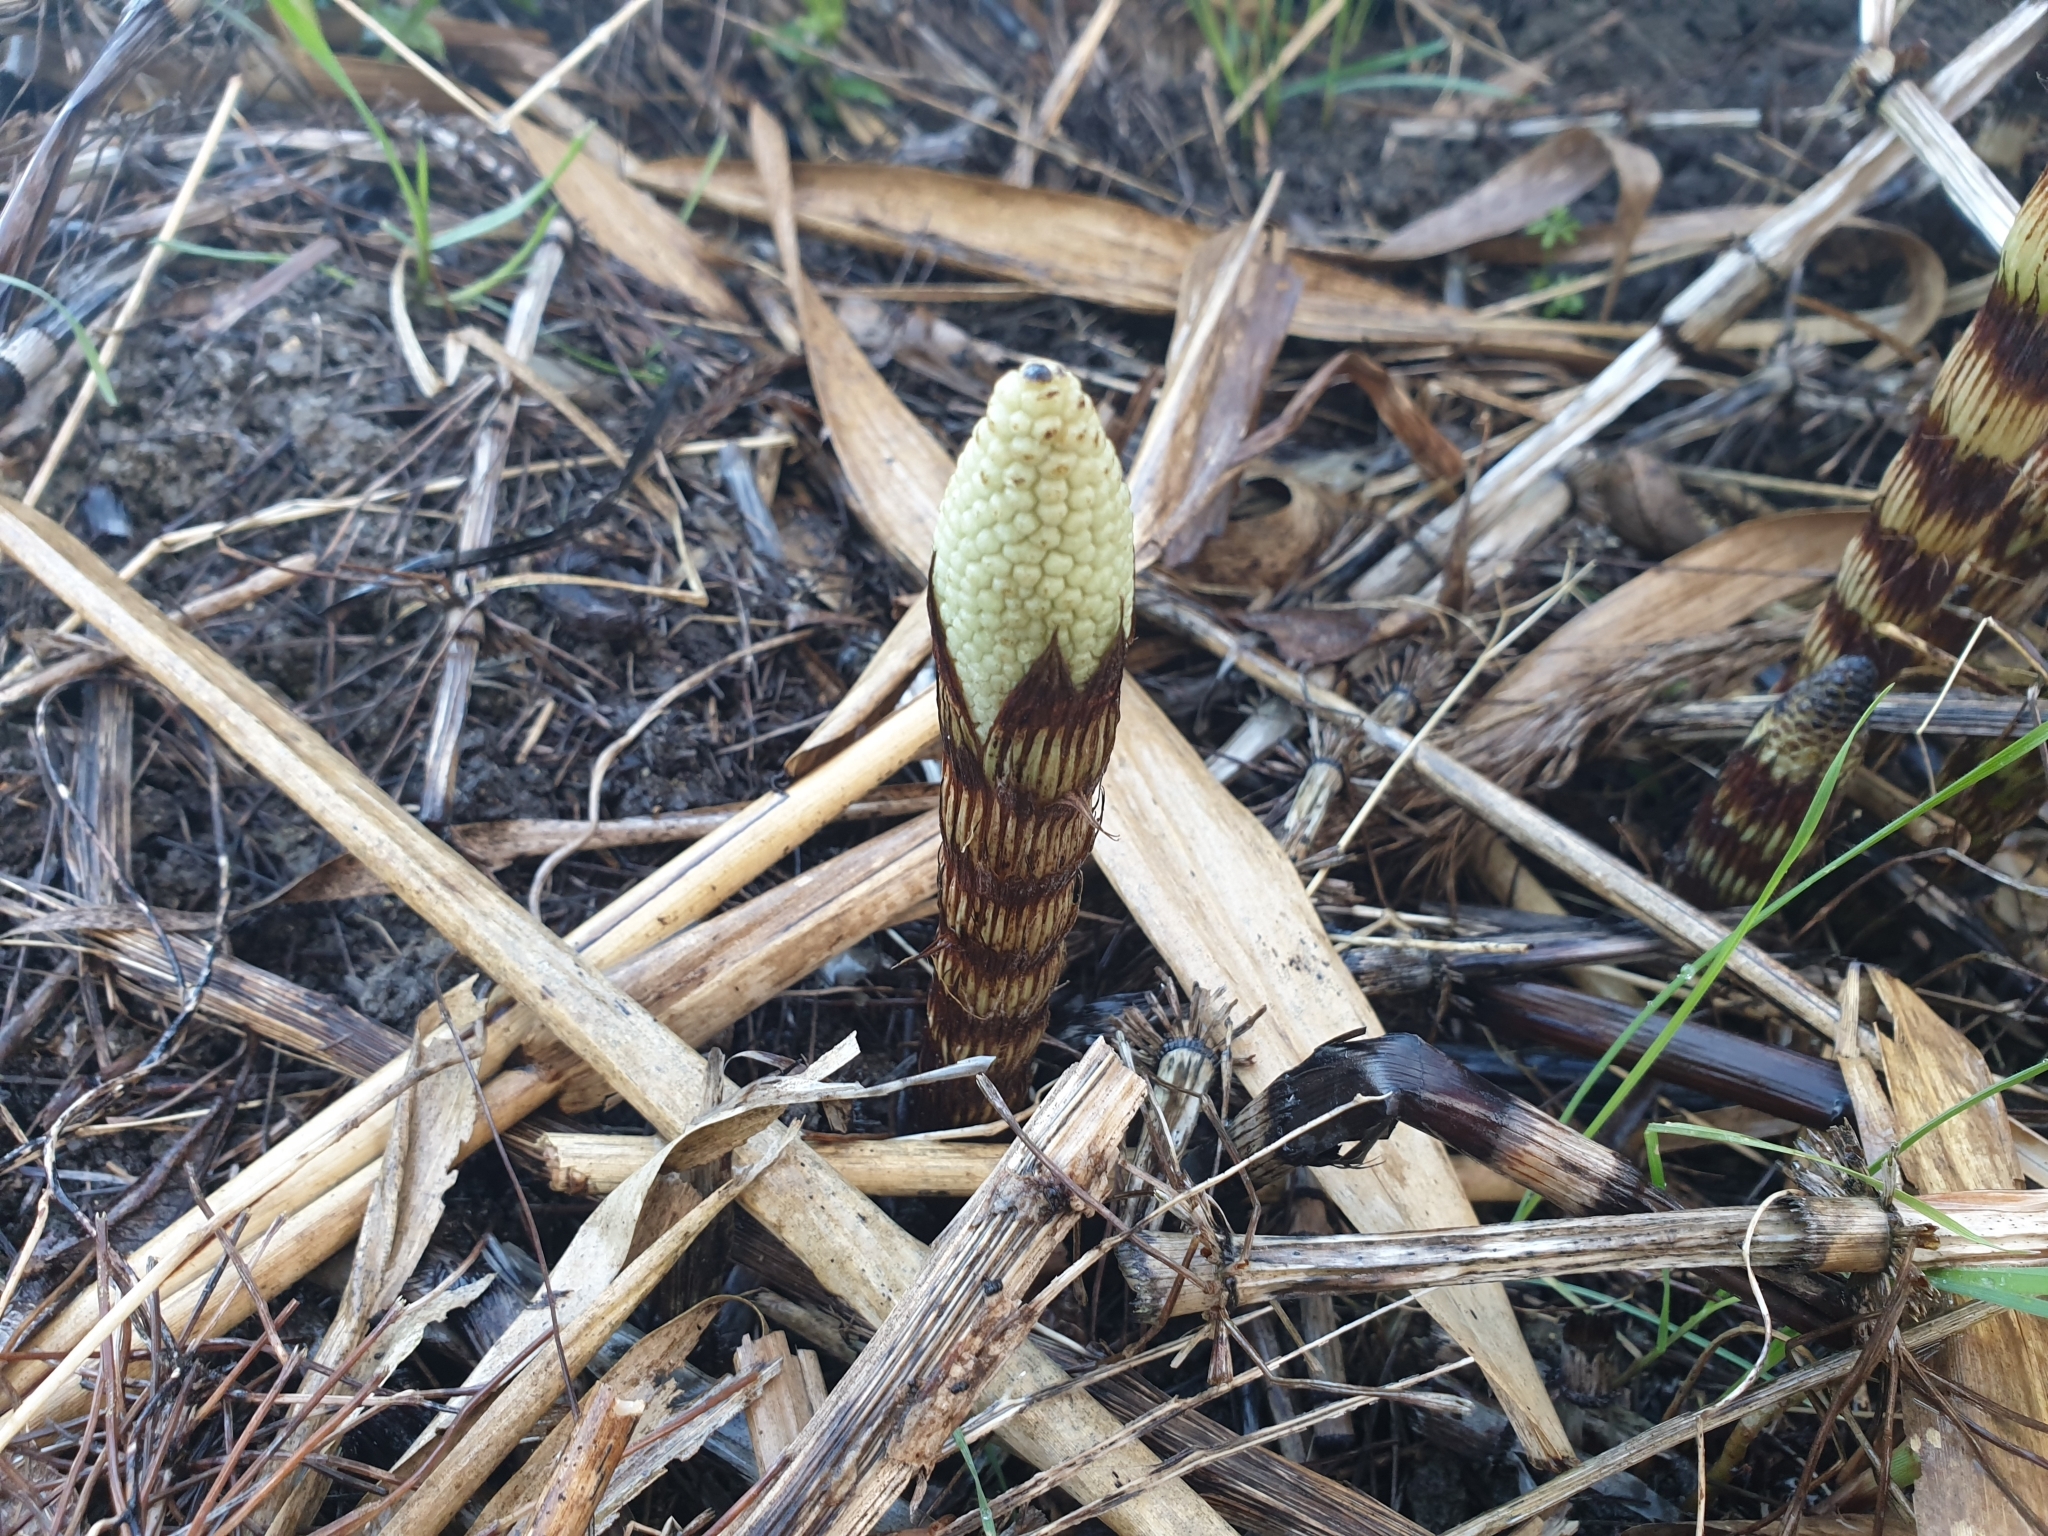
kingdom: Plantae
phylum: Tracheophyta
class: Polypodiopsida
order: Equisetales
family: Equisetaceae
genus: Equisetum
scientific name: Equisetum telmateia
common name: Great horsetail
